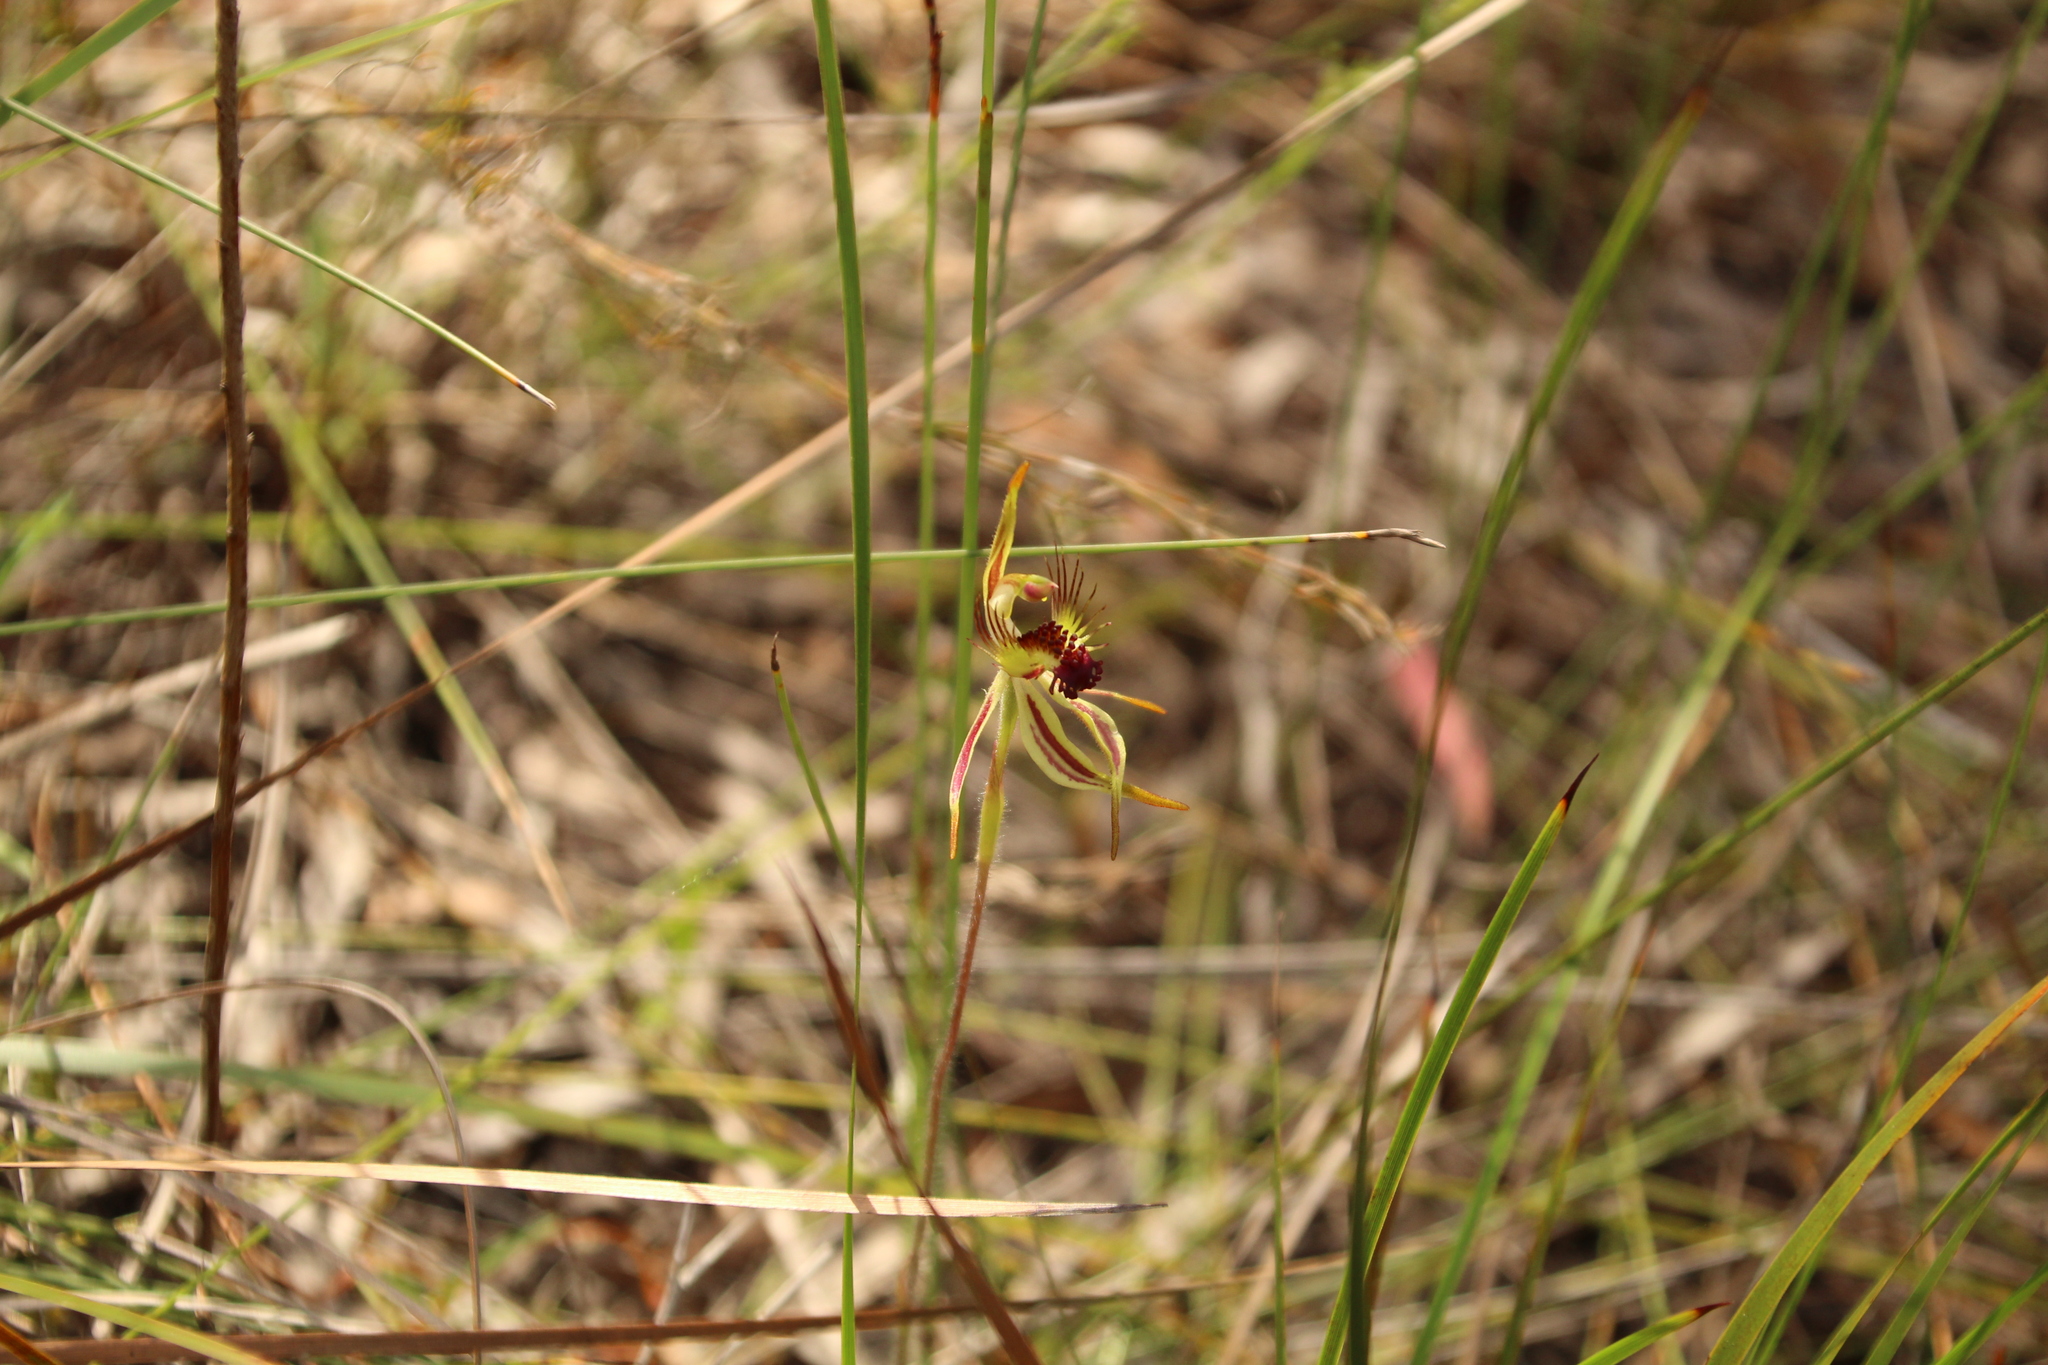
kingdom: Plantae
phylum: Tracheophyta
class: Liliopsida
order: Asparagales
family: Orchidaceae
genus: Caladenia
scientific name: Caladenia corynephora
